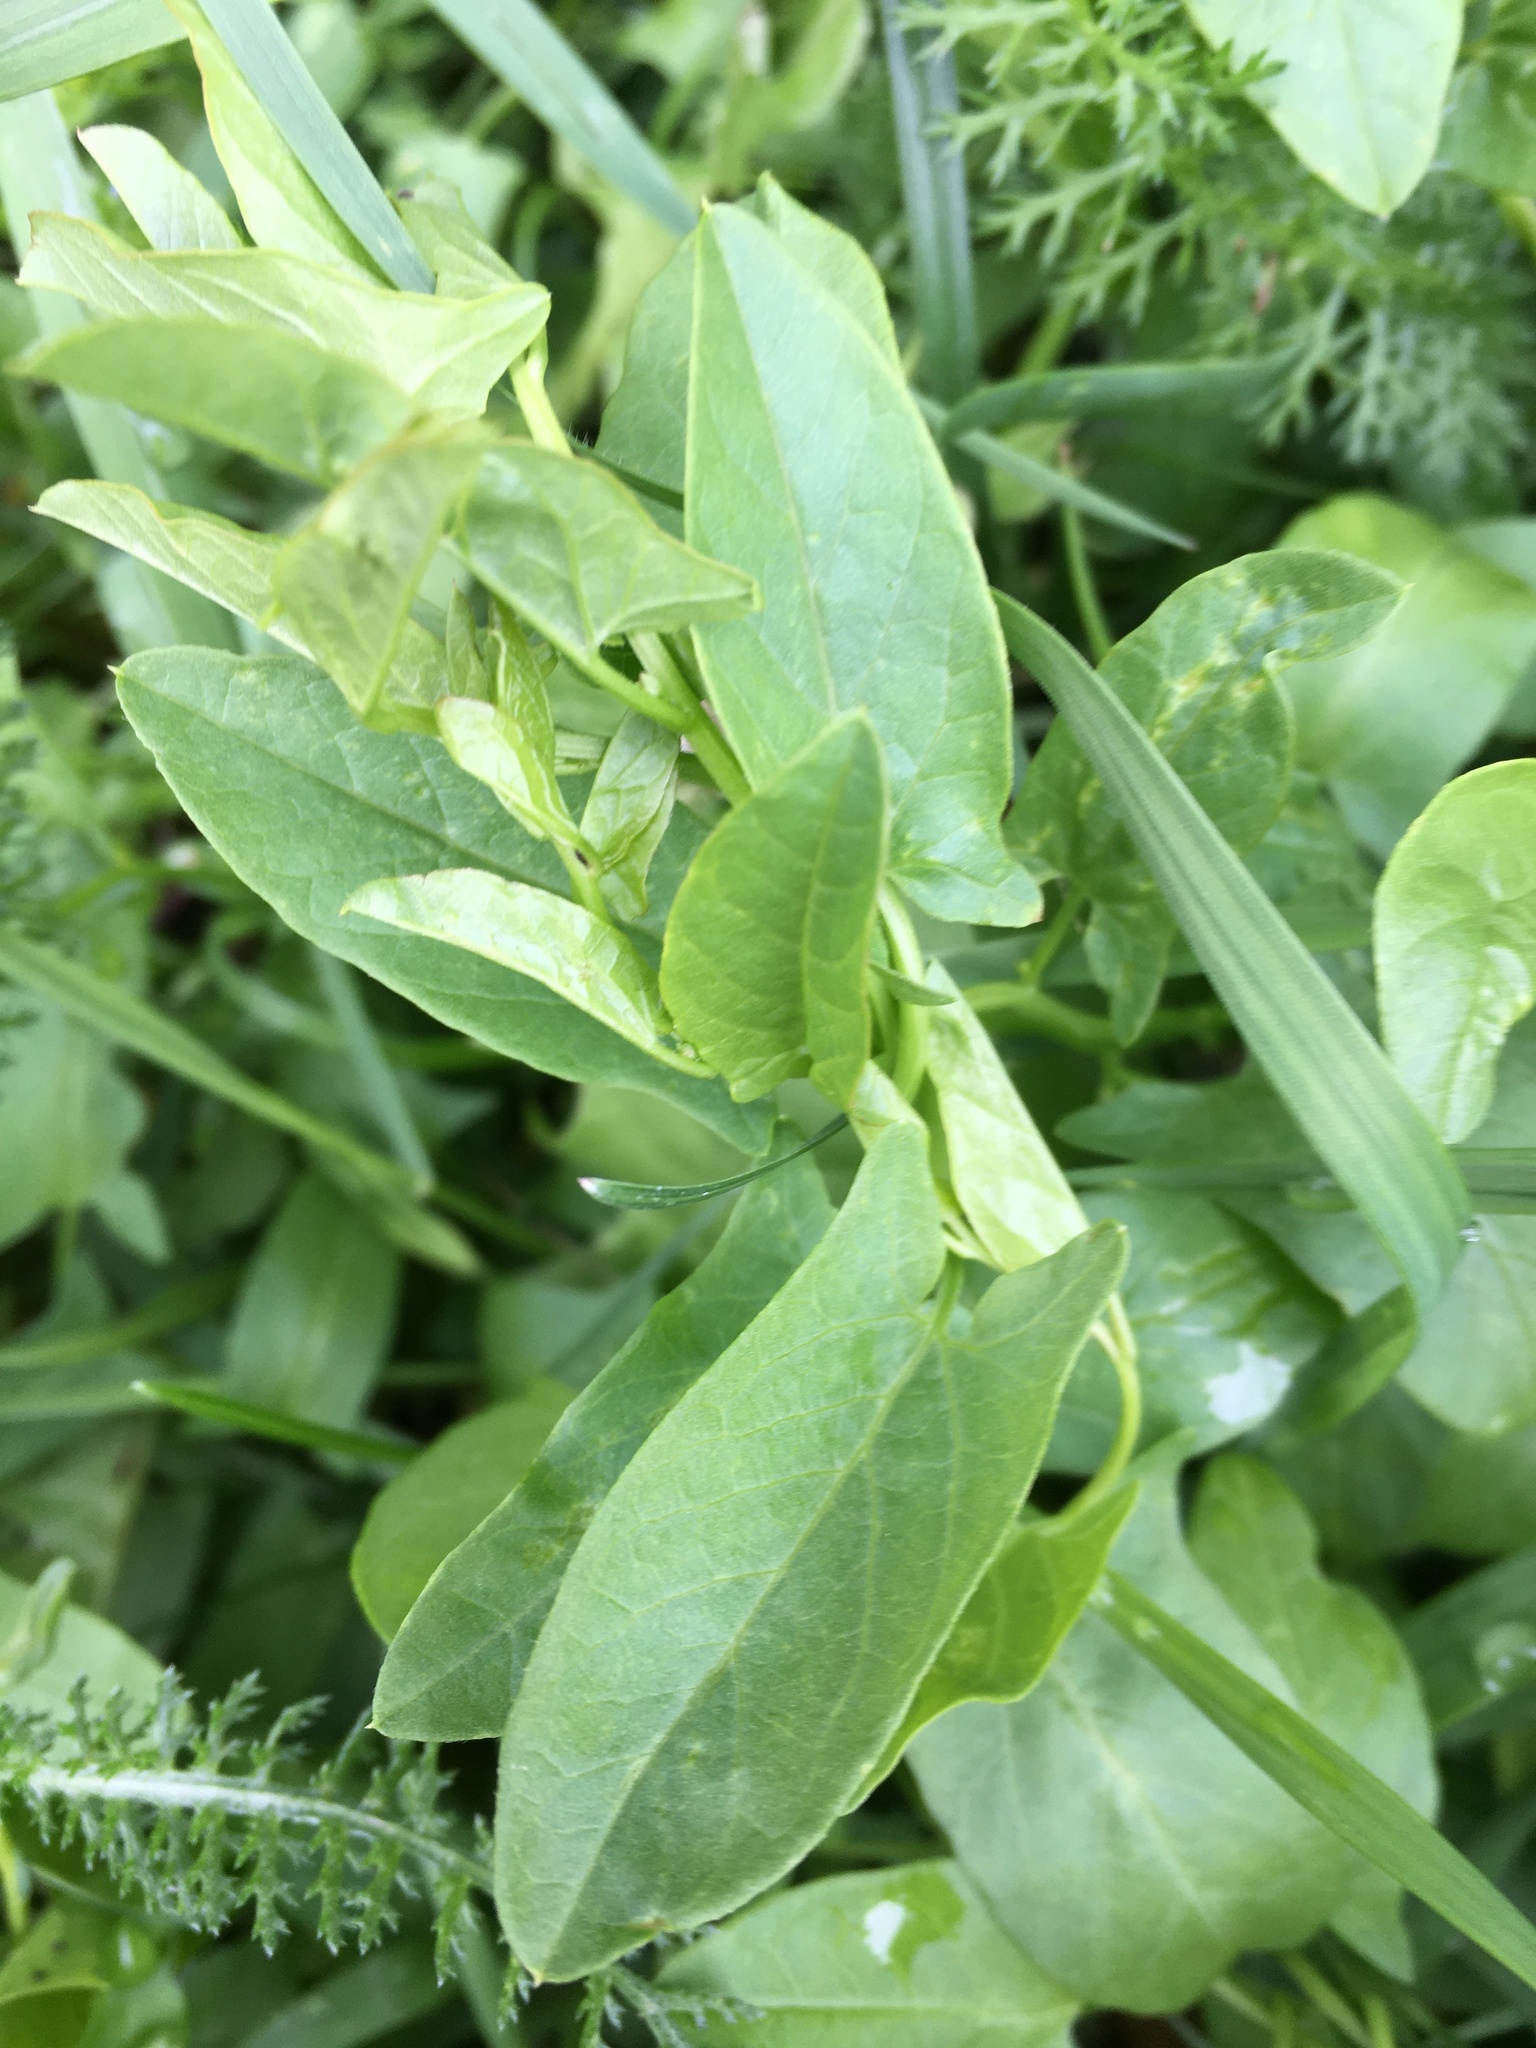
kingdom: Plantae
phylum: Tracheophyta
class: Magnoliopsida
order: Solanales
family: Convolvulaceae
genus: Convolvulus
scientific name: Convolvulus arvensis
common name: Field bindweed
